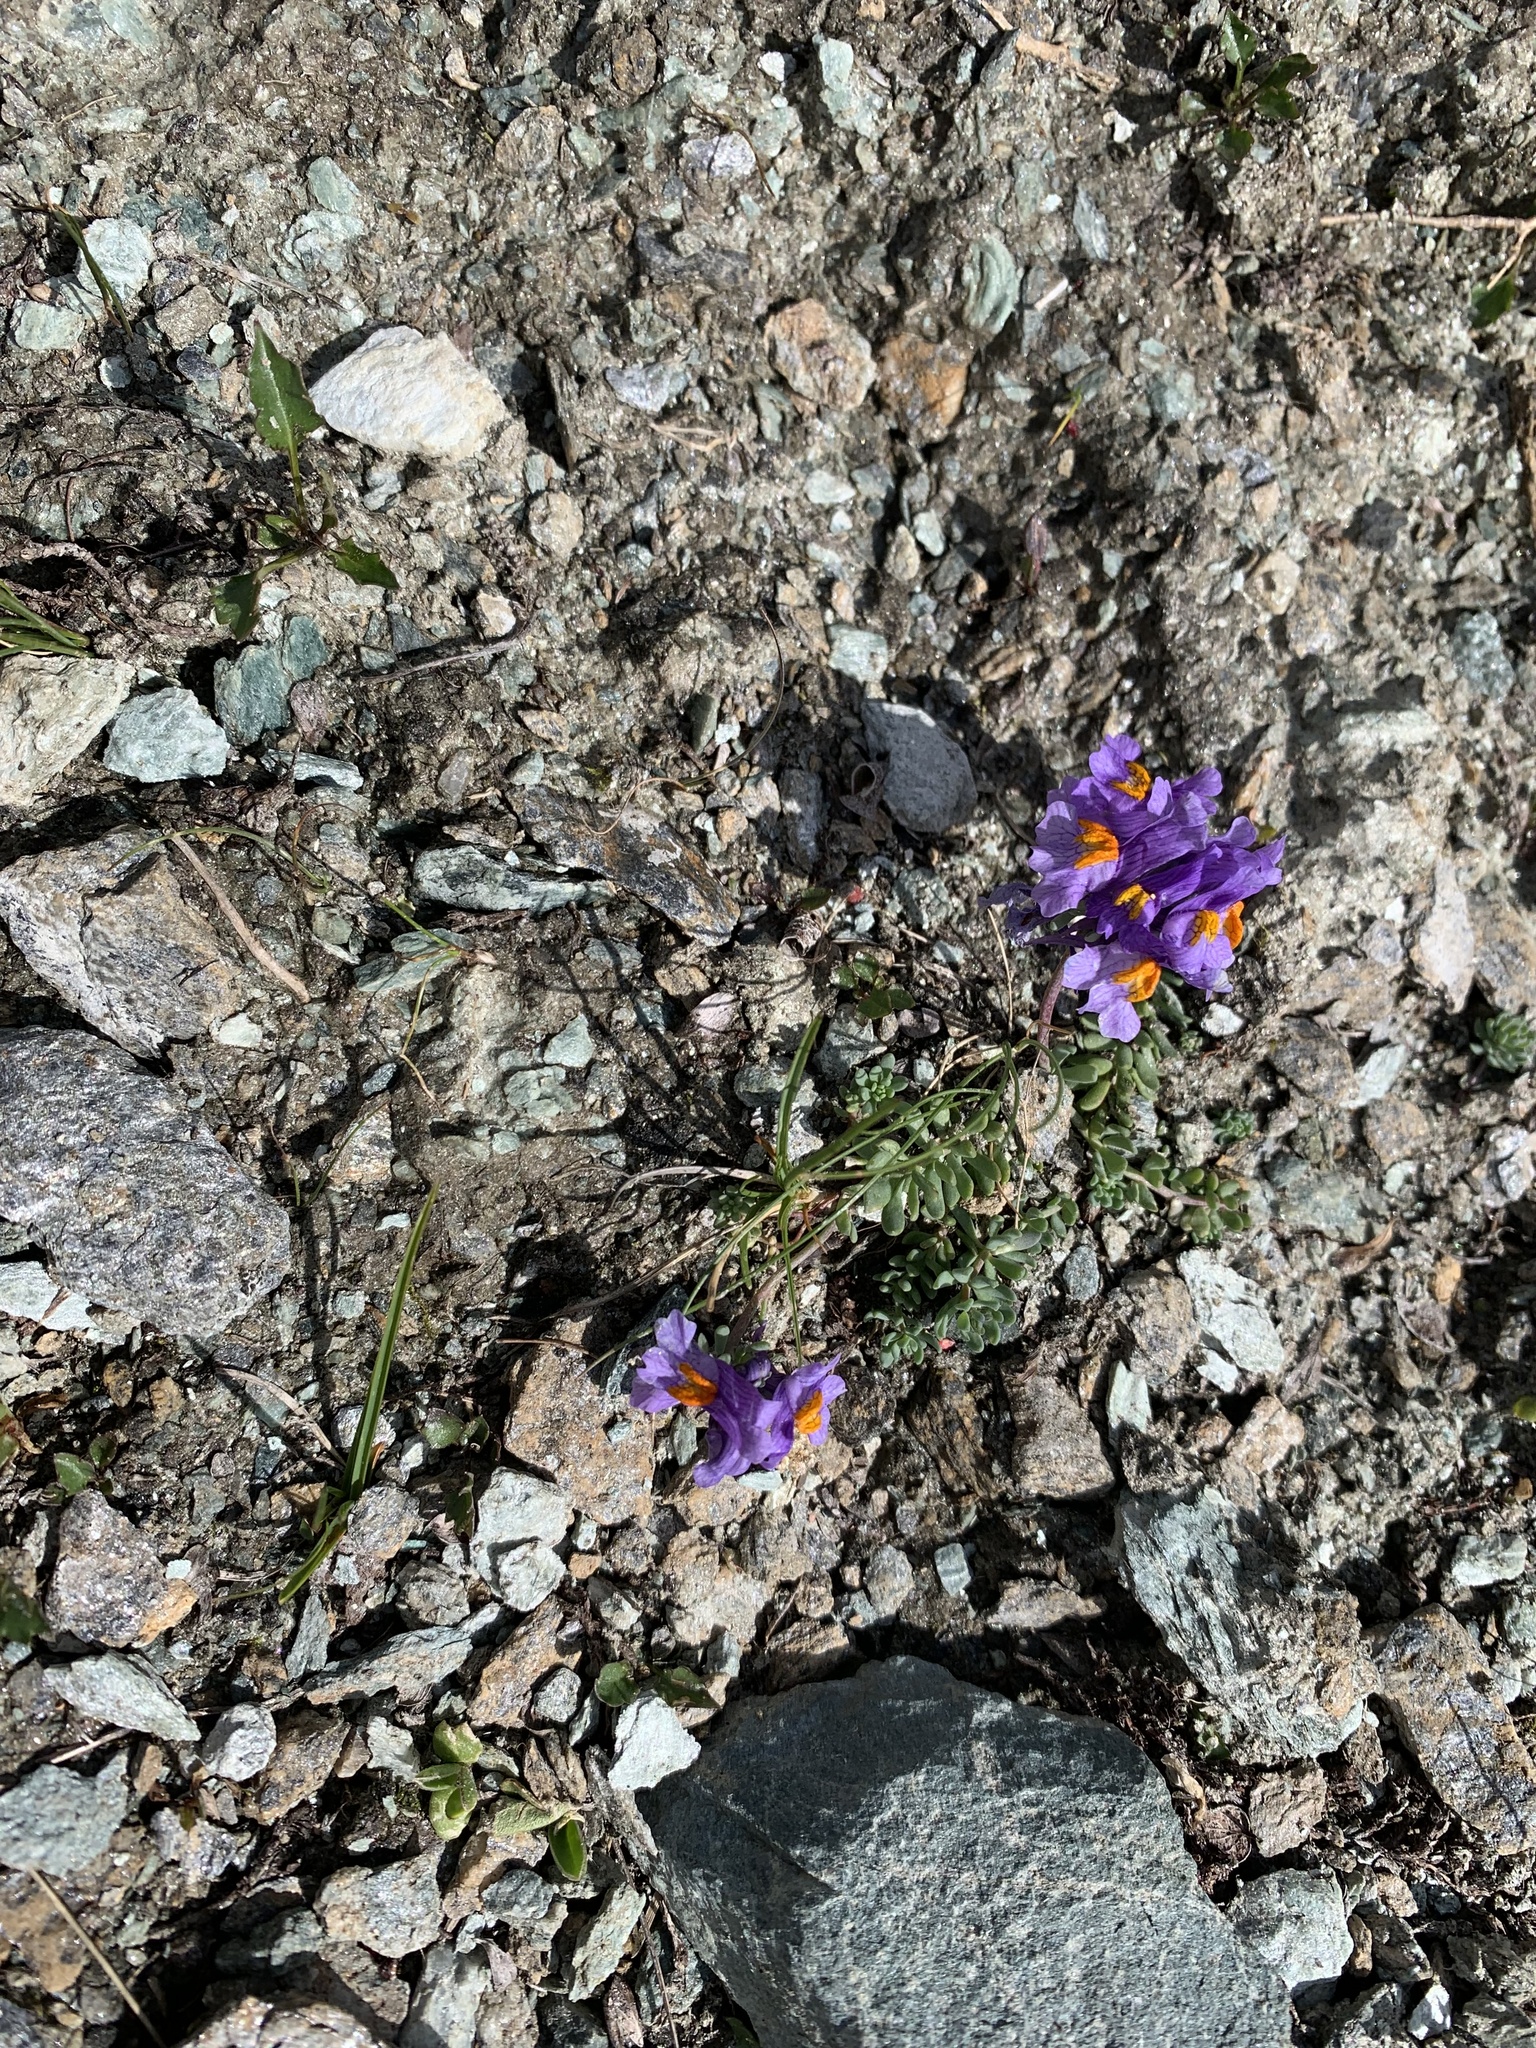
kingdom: Plantae
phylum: Tracheophyta
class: Magnoliopsida
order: Lamiales
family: Plantaginaceae
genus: Linaria
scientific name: Linaria alpina
